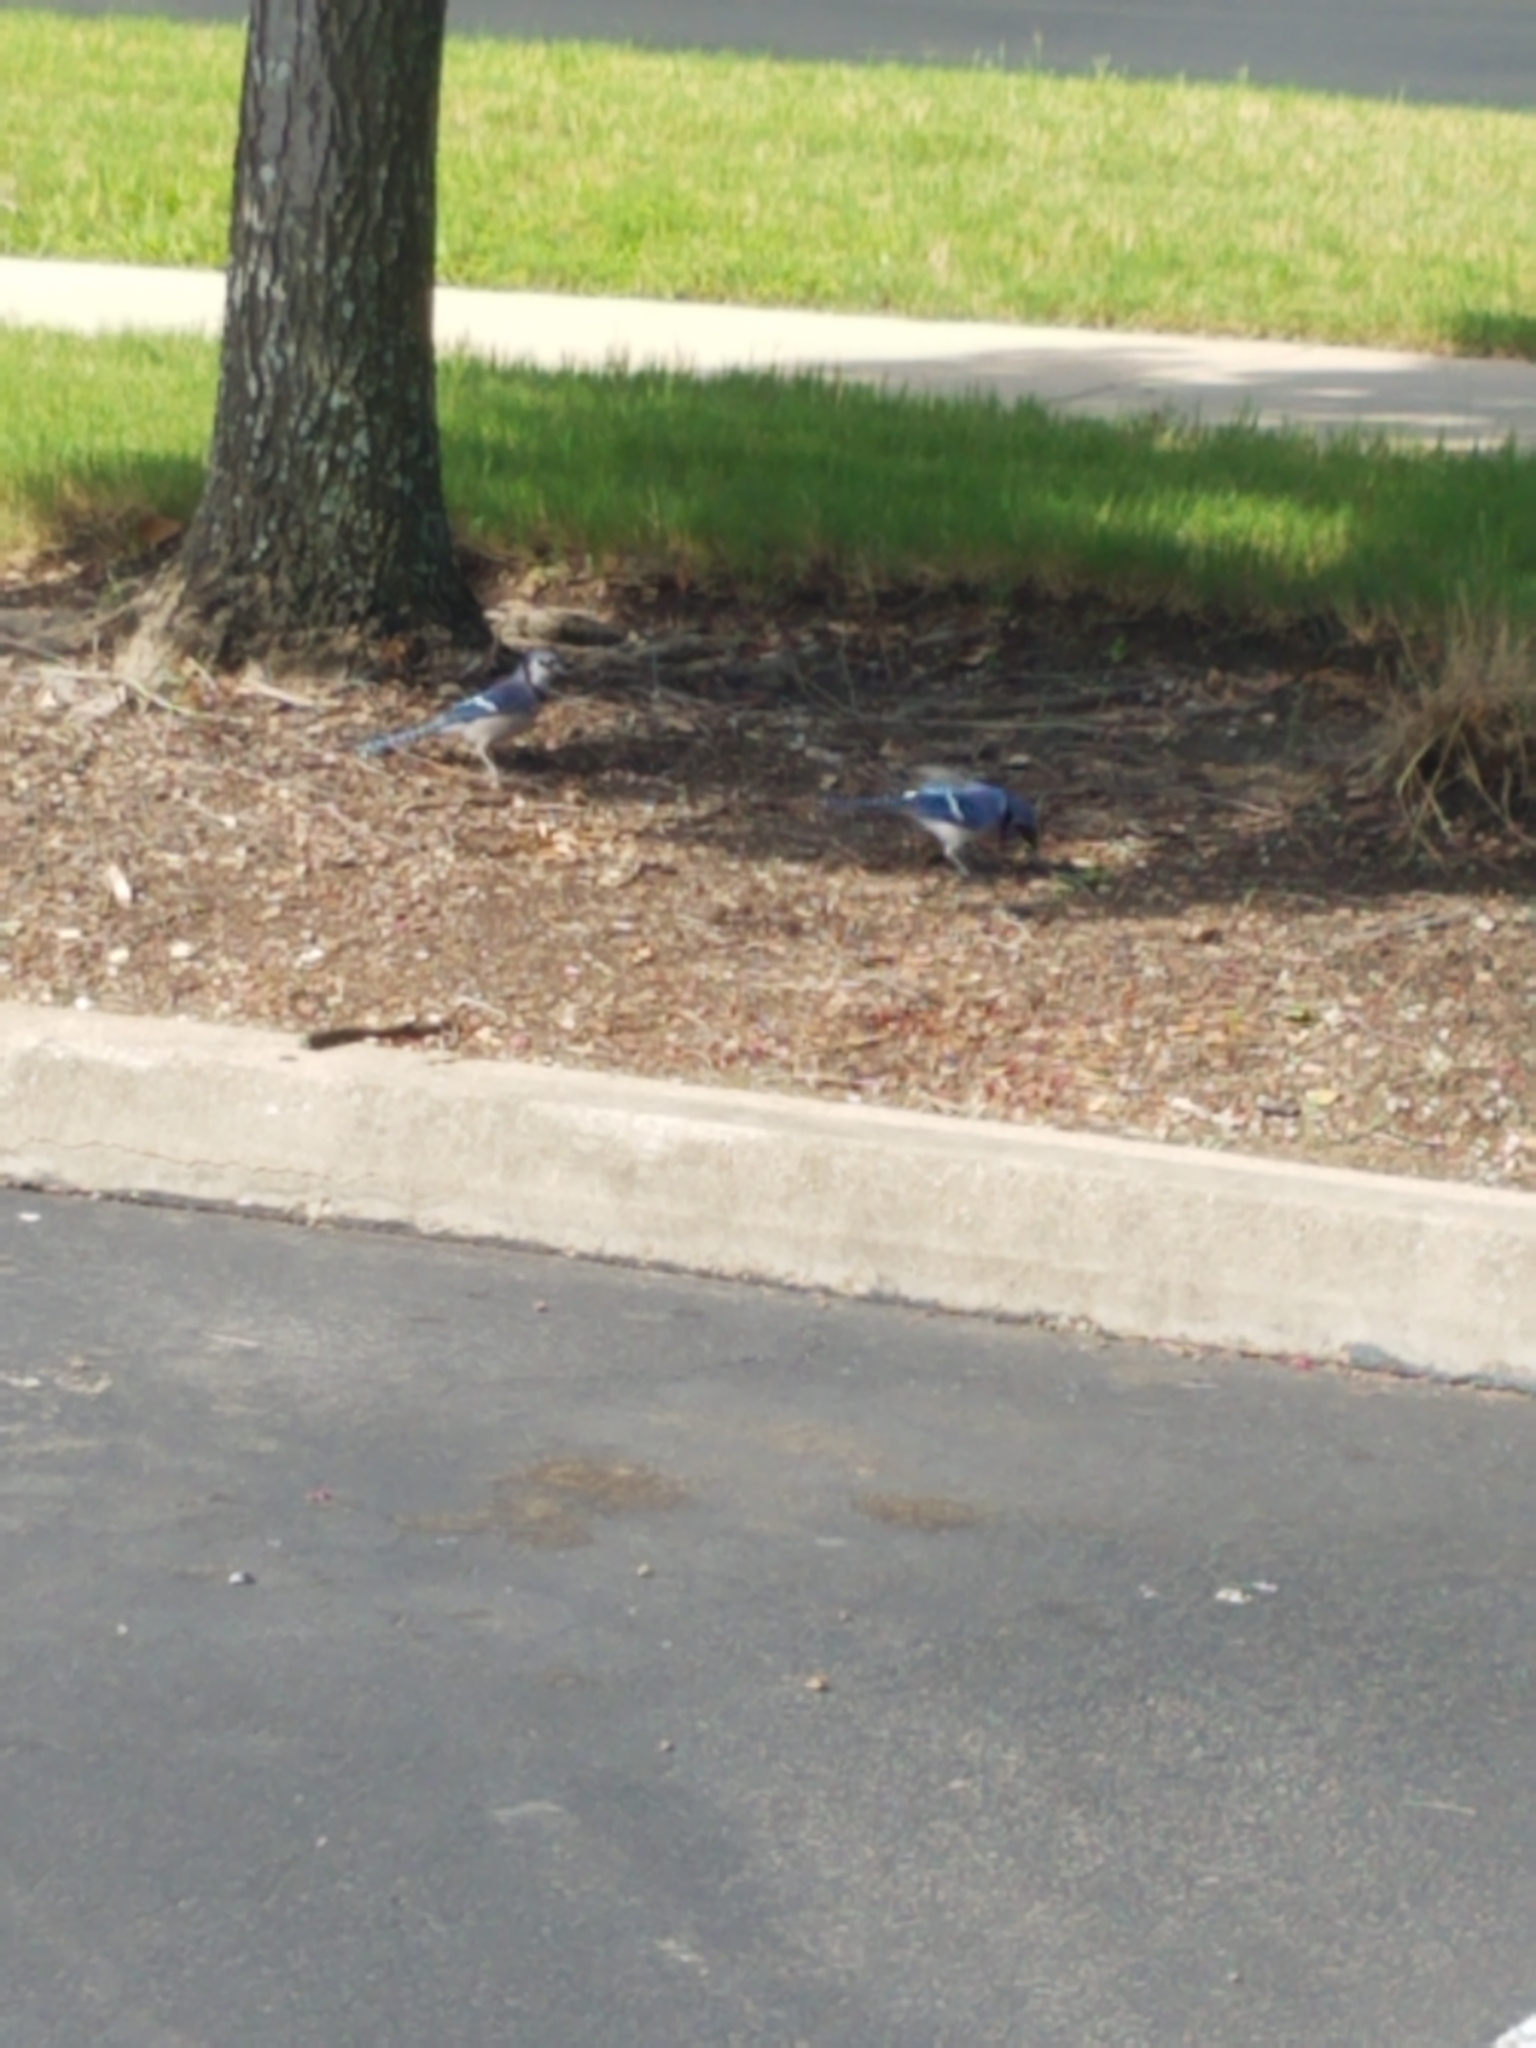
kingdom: Animalia
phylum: Chordata
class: Aves
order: Passeriformes
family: Corvidae
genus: Cyanocitta
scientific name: Cyanocitta cristata
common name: Blue jay
